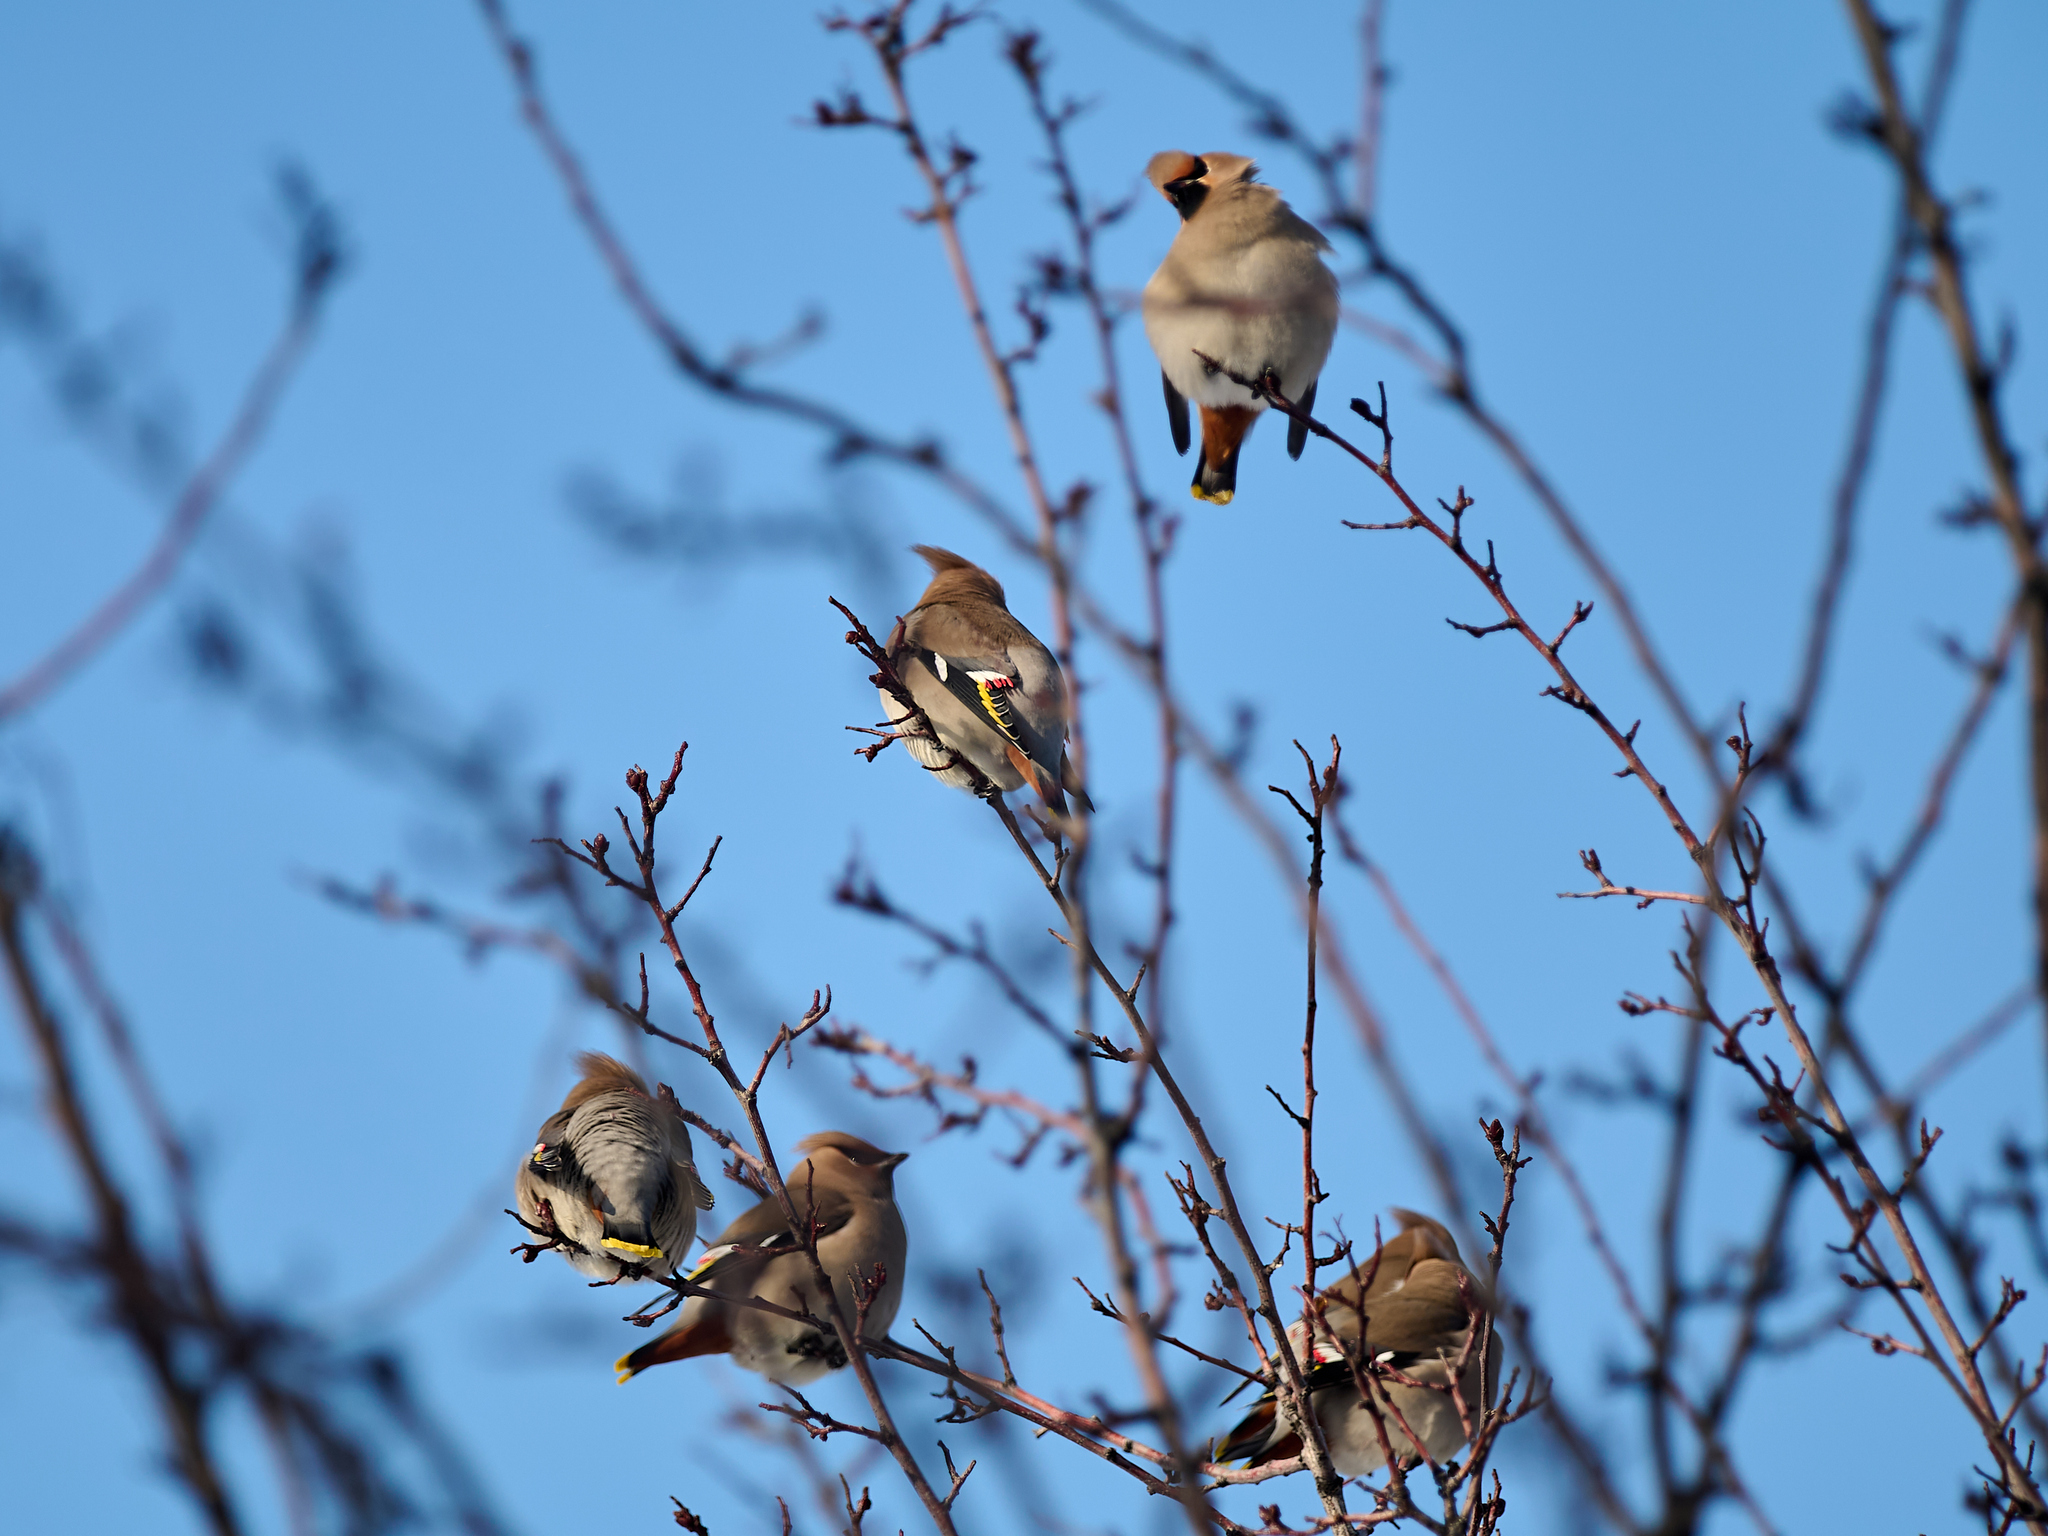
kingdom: Animalia
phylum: Chordata
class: Aves
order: Passeriformes
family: Bombycillidae
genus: Bombycilla
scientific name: Bombycilla garrulus
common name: Bohemian waxwing
